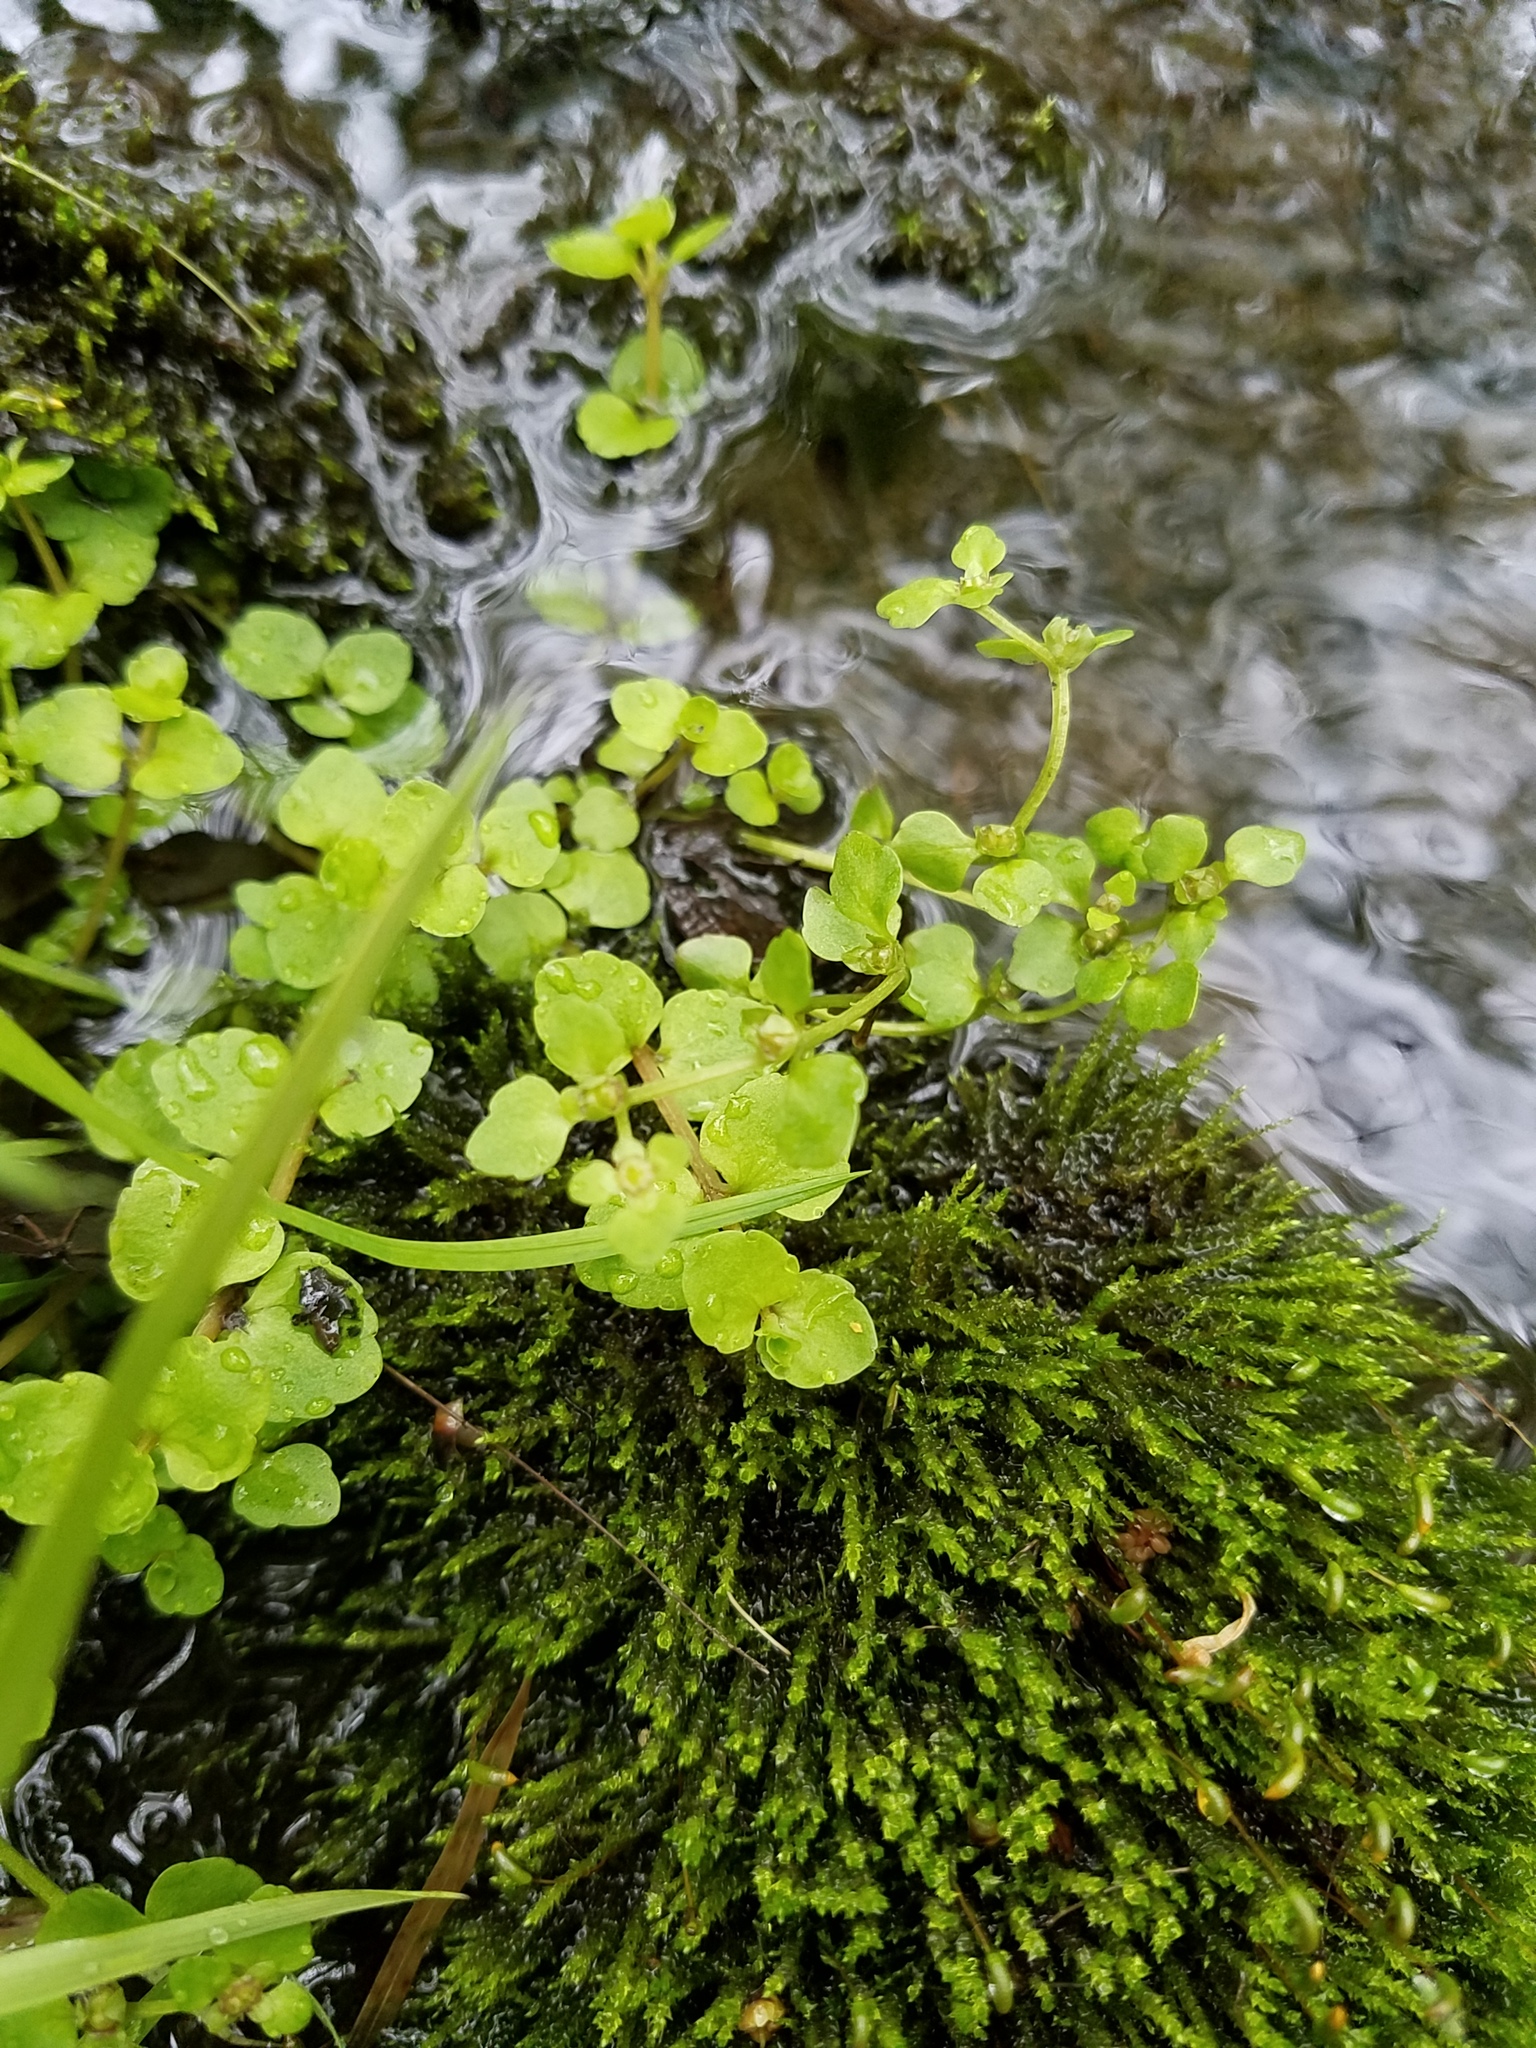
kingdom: Plantae
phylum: Tracheophyta
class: Magnoliopsida
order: Saxifragales
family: Saxifragaceae
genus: Chrysosplenium
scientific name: Chrysosplenium americanum
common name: American golden-saxifrage
